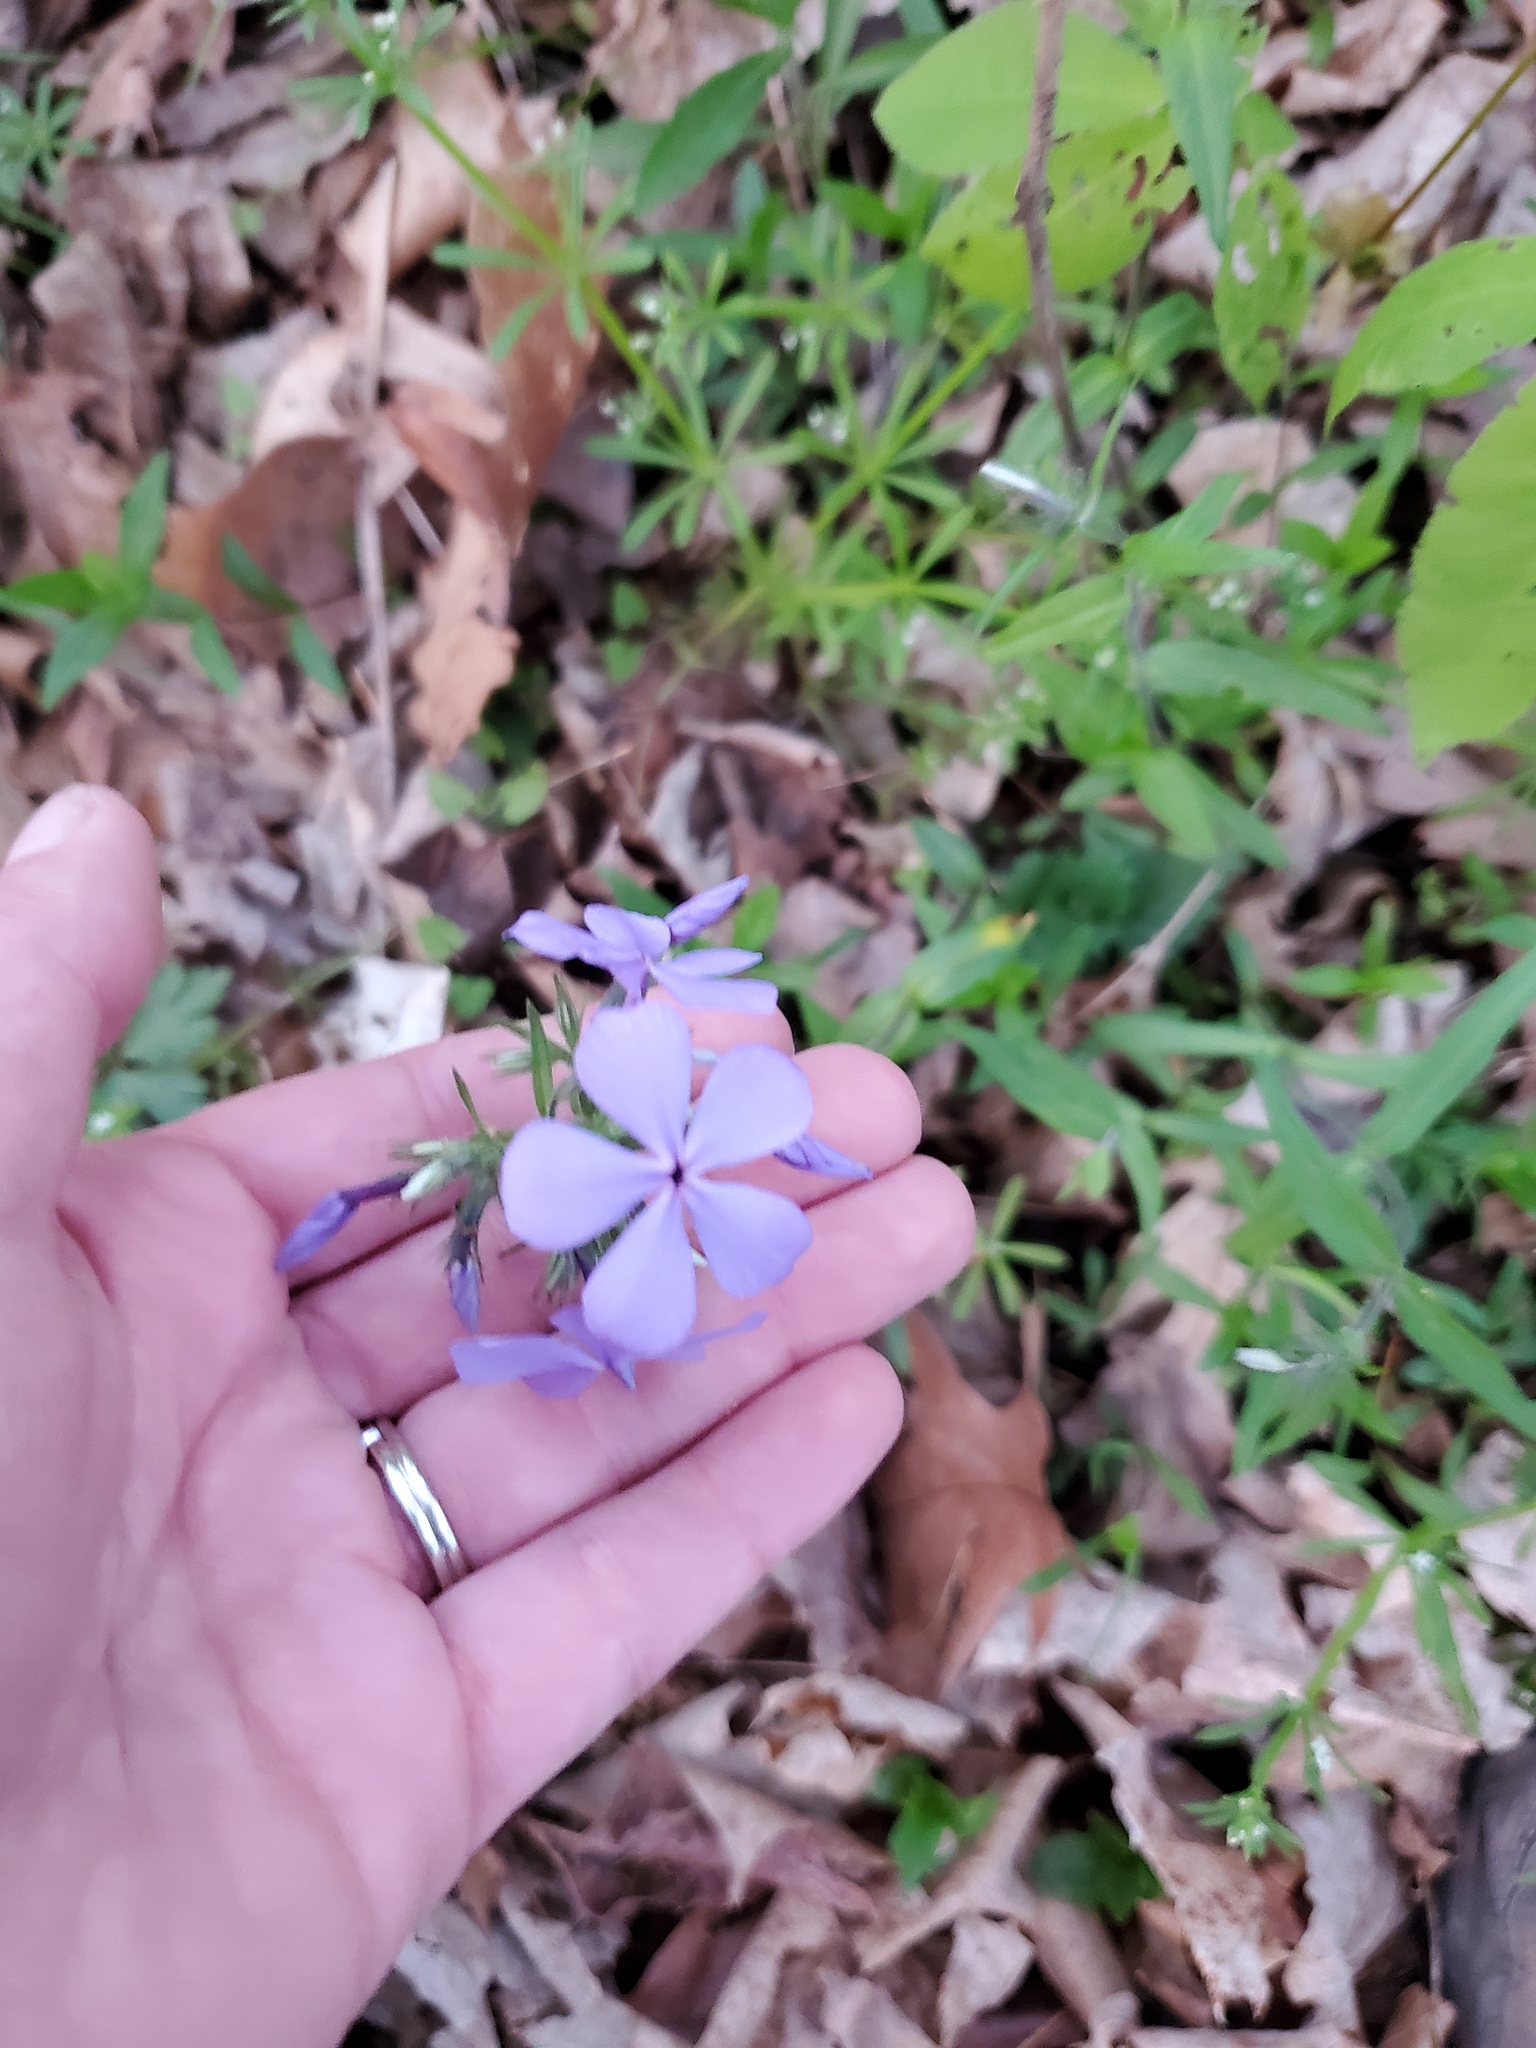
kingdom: Plantae
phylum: Tracheophyta
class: Magnoliopsida
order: Ericales
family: Polemoniaceae
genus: Phlox
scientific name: Phlox divaricata
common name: Blue phlox
